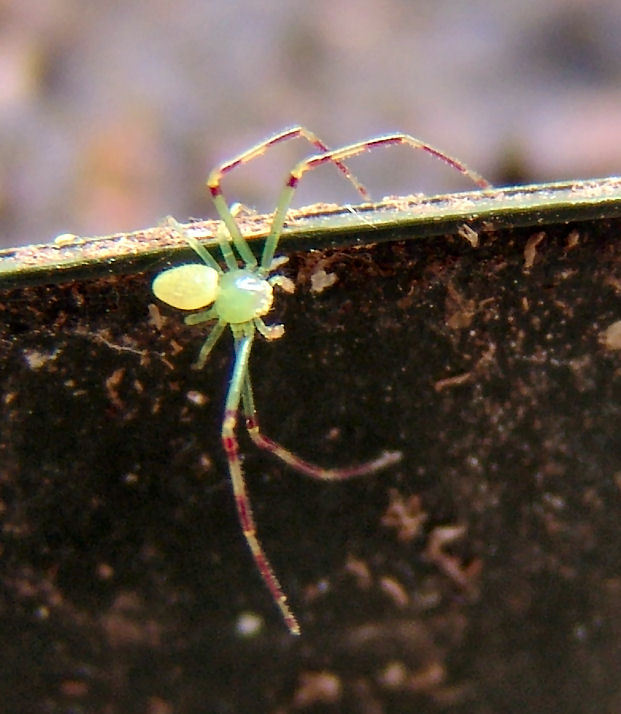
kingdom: Animalia
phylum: Arthropoda
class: Arachnida
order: Araneae
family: Thomisidae
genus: Misumessus
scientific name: Misumessus oblongus
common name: American green crab spider
